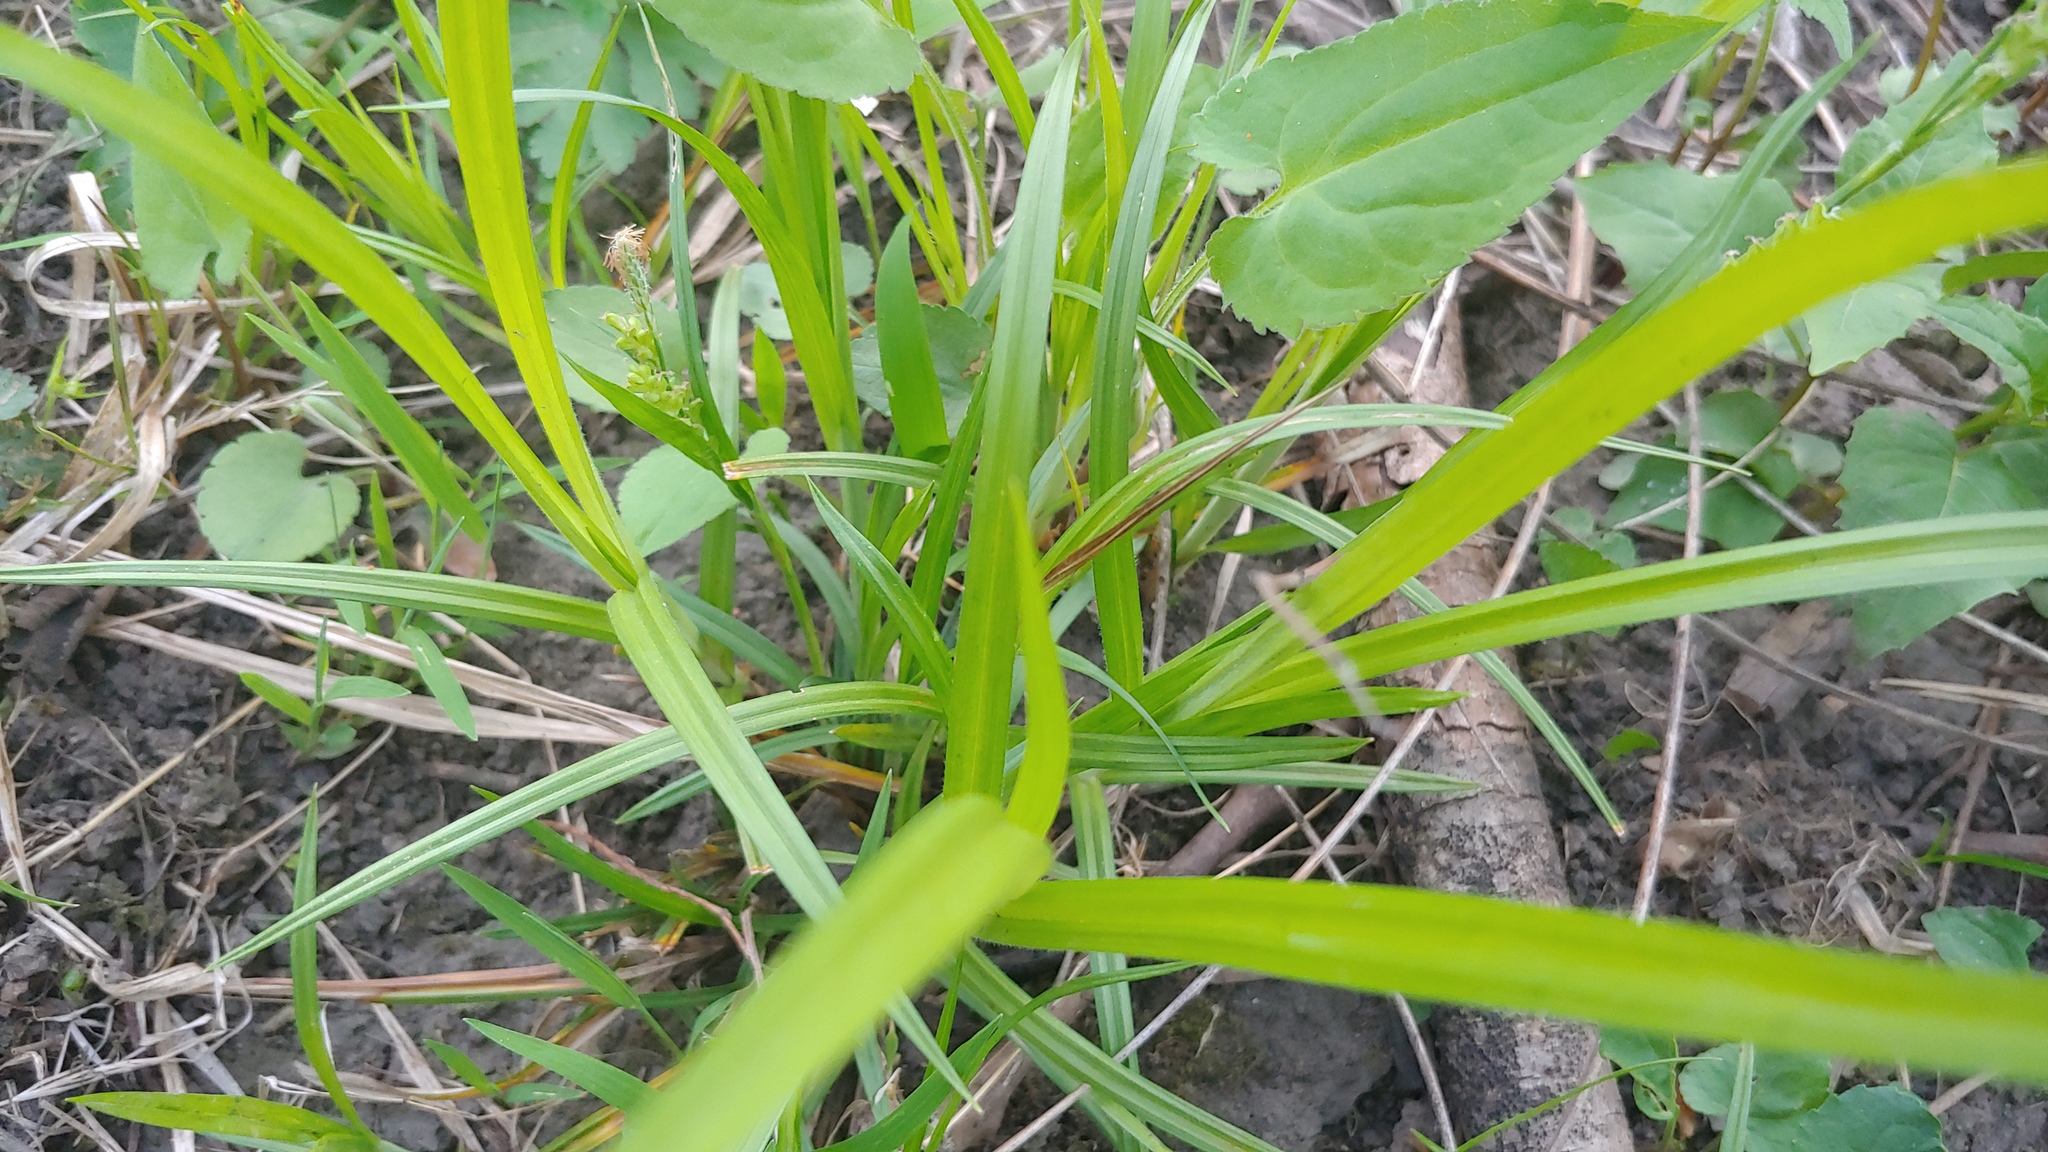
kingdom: Plantae
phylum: Tracheophyta
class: Liliopsida
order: Poales
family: Cyperaceae
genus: Carex
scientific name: Carex blanda
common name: Bland sedge
